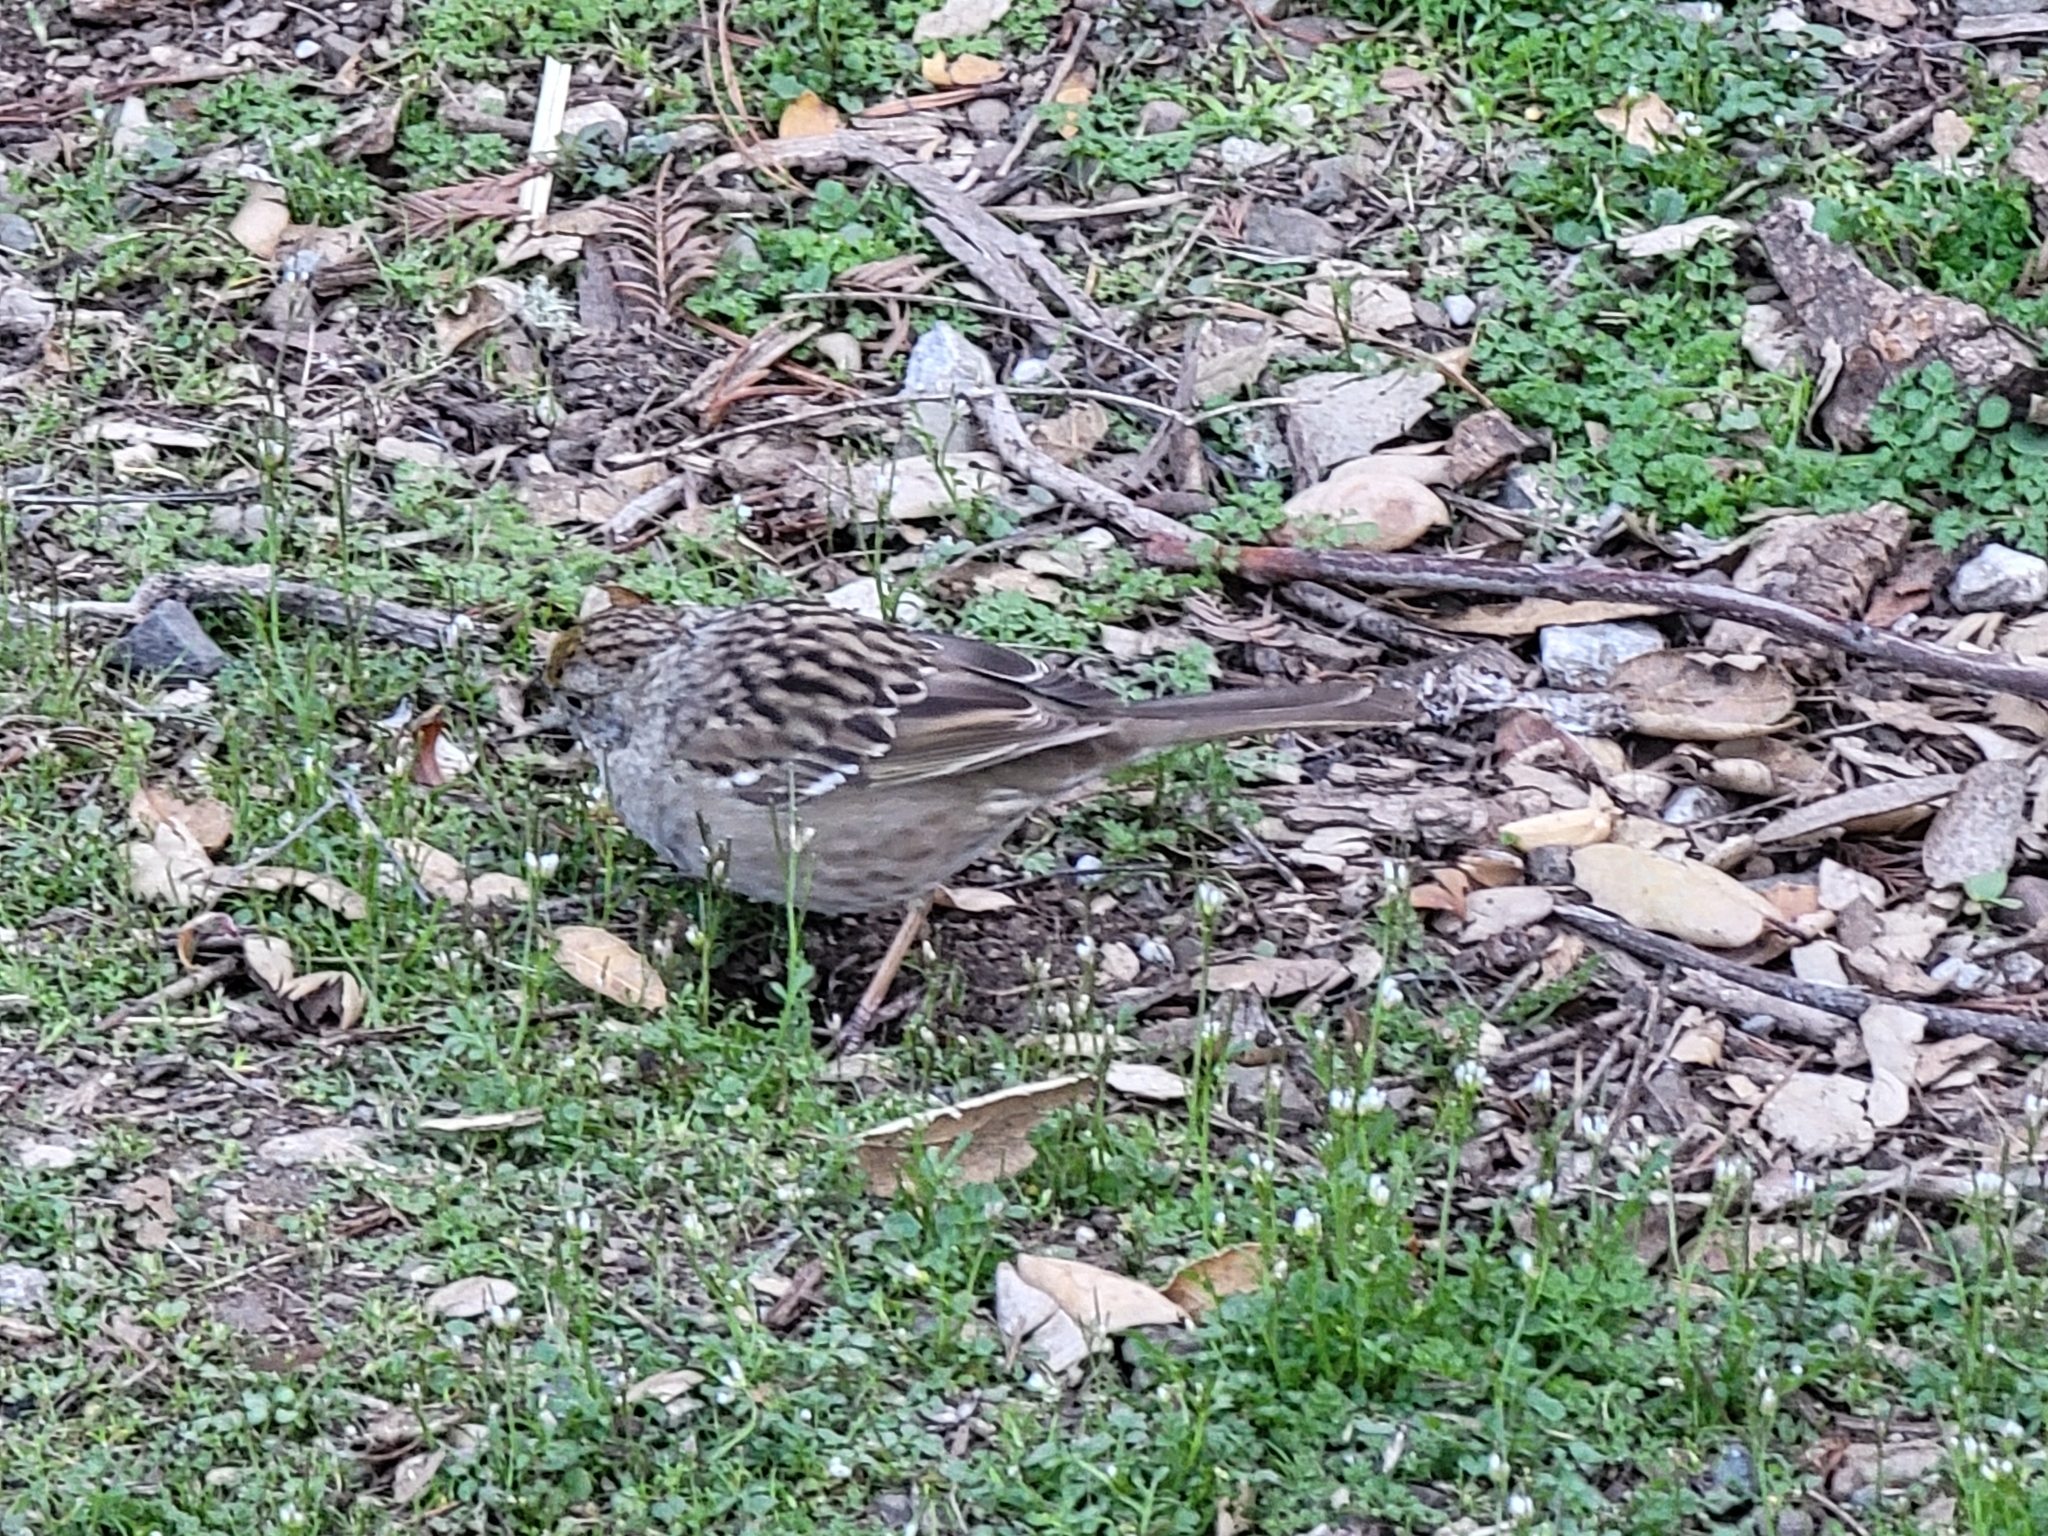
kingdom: Animalia
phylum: Chordata
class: Aves
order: Passeriformes
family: Passerellidae
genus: Zonotrichia
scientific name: Zonotrichia atricapilla
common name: Golden-crowned sparrow
